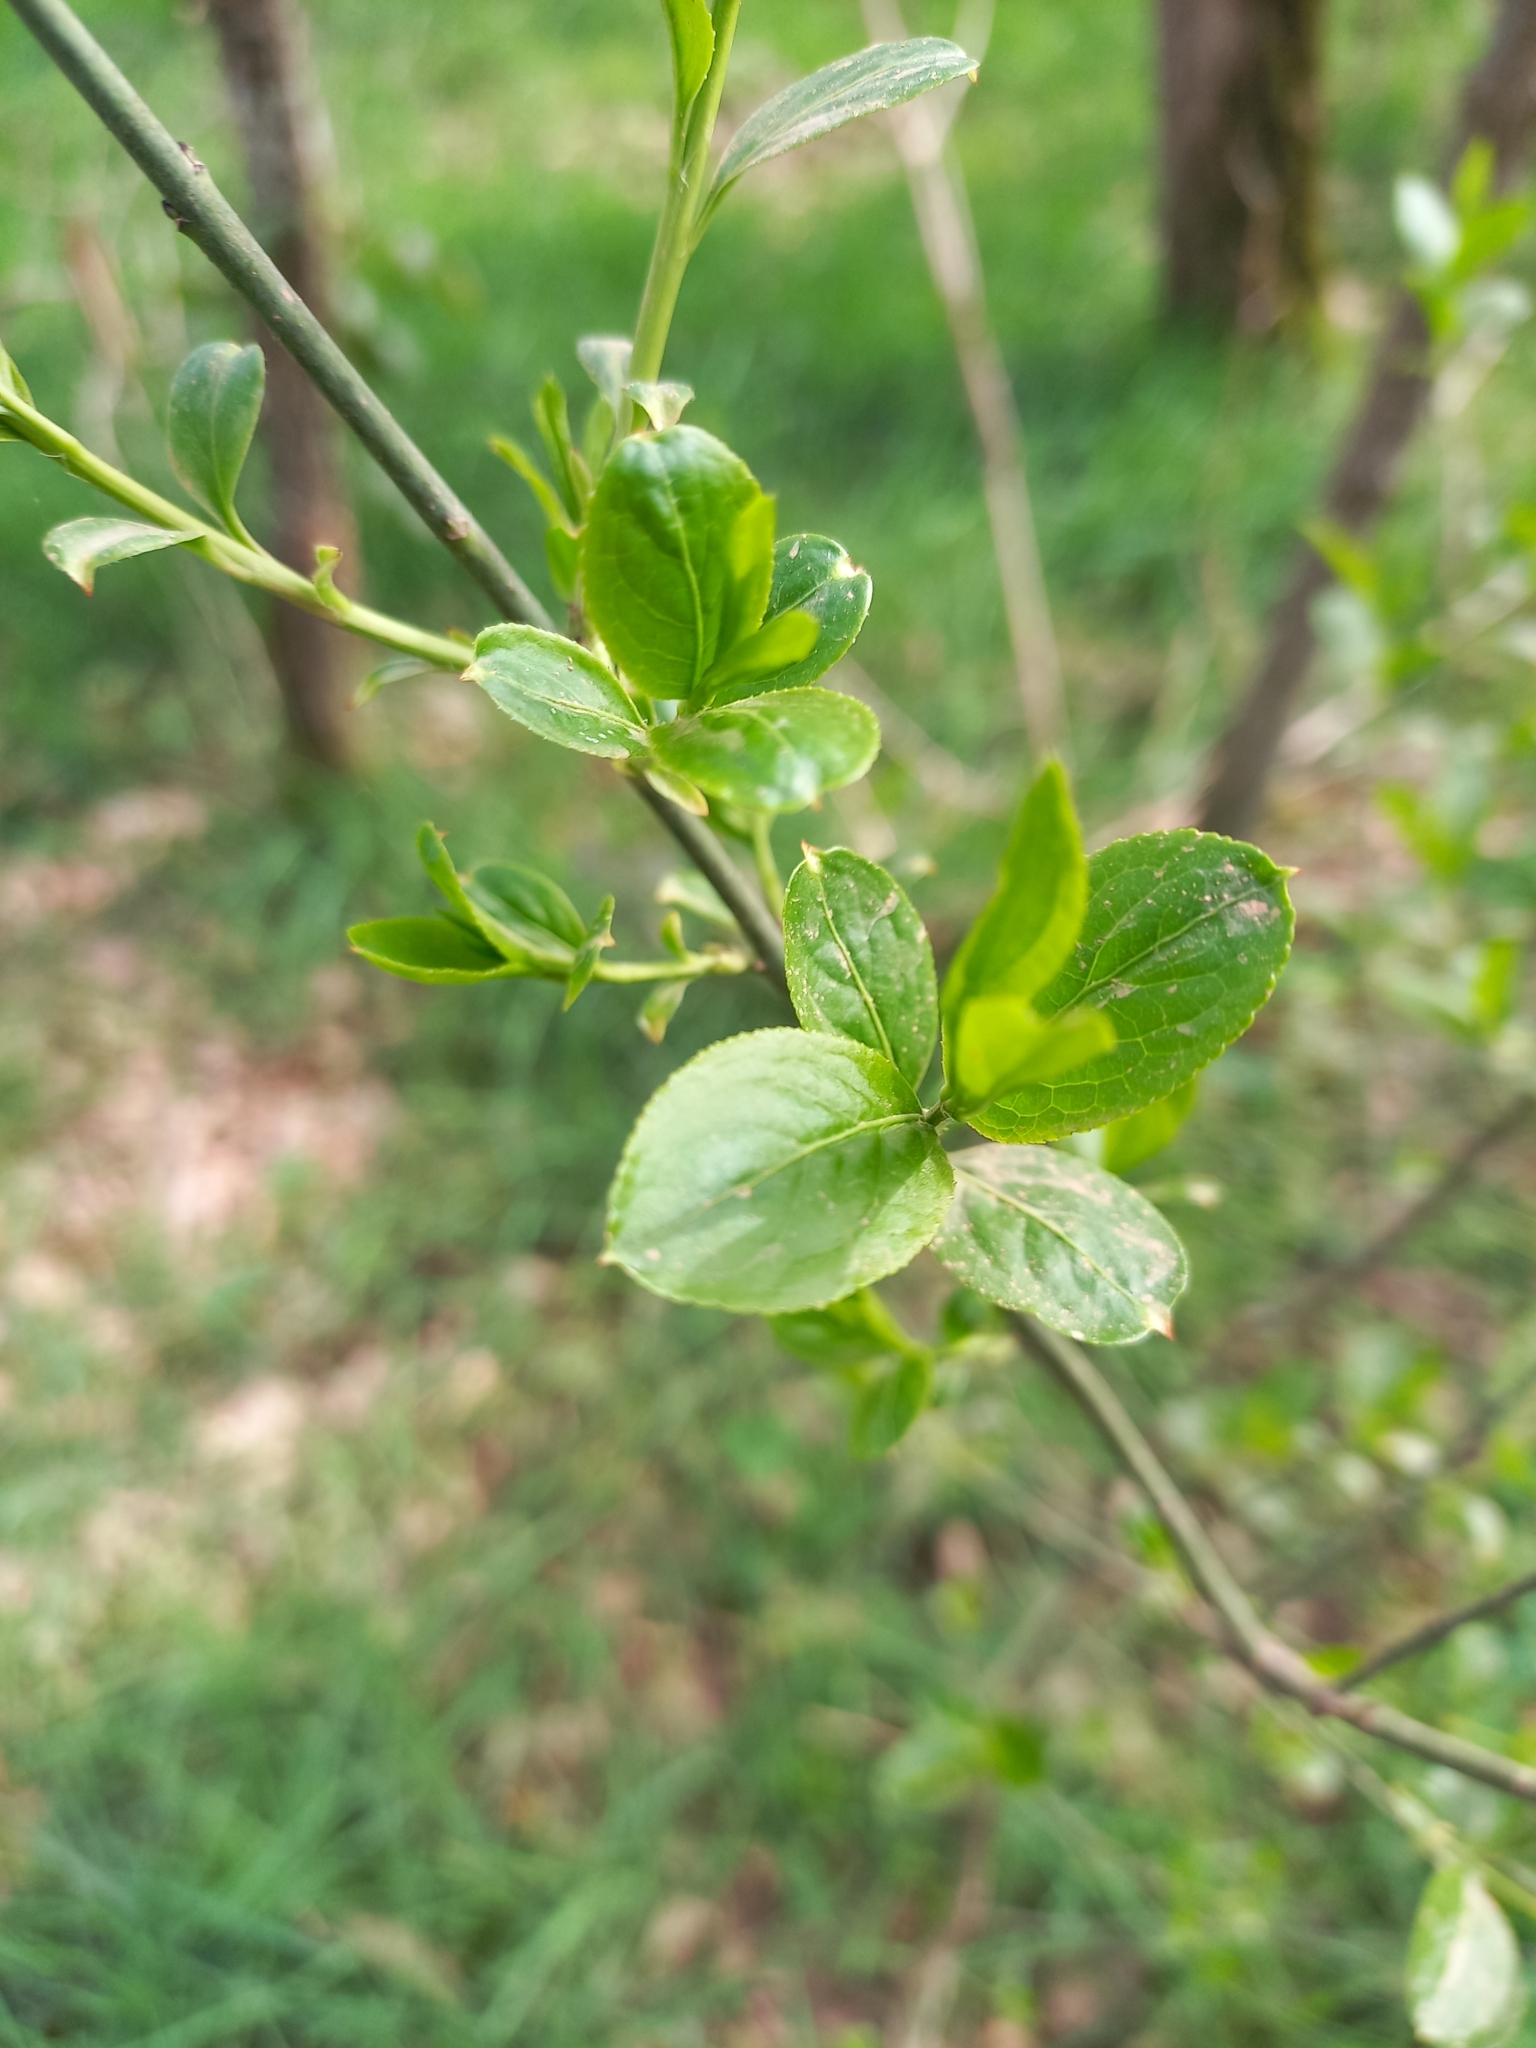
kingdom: Plantae
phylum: Tracheophyta
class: Magnoliopsida
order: Celastrales
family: Celastraceae
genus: Euonymus
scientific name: Euonymus europaeus
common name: Spindle
